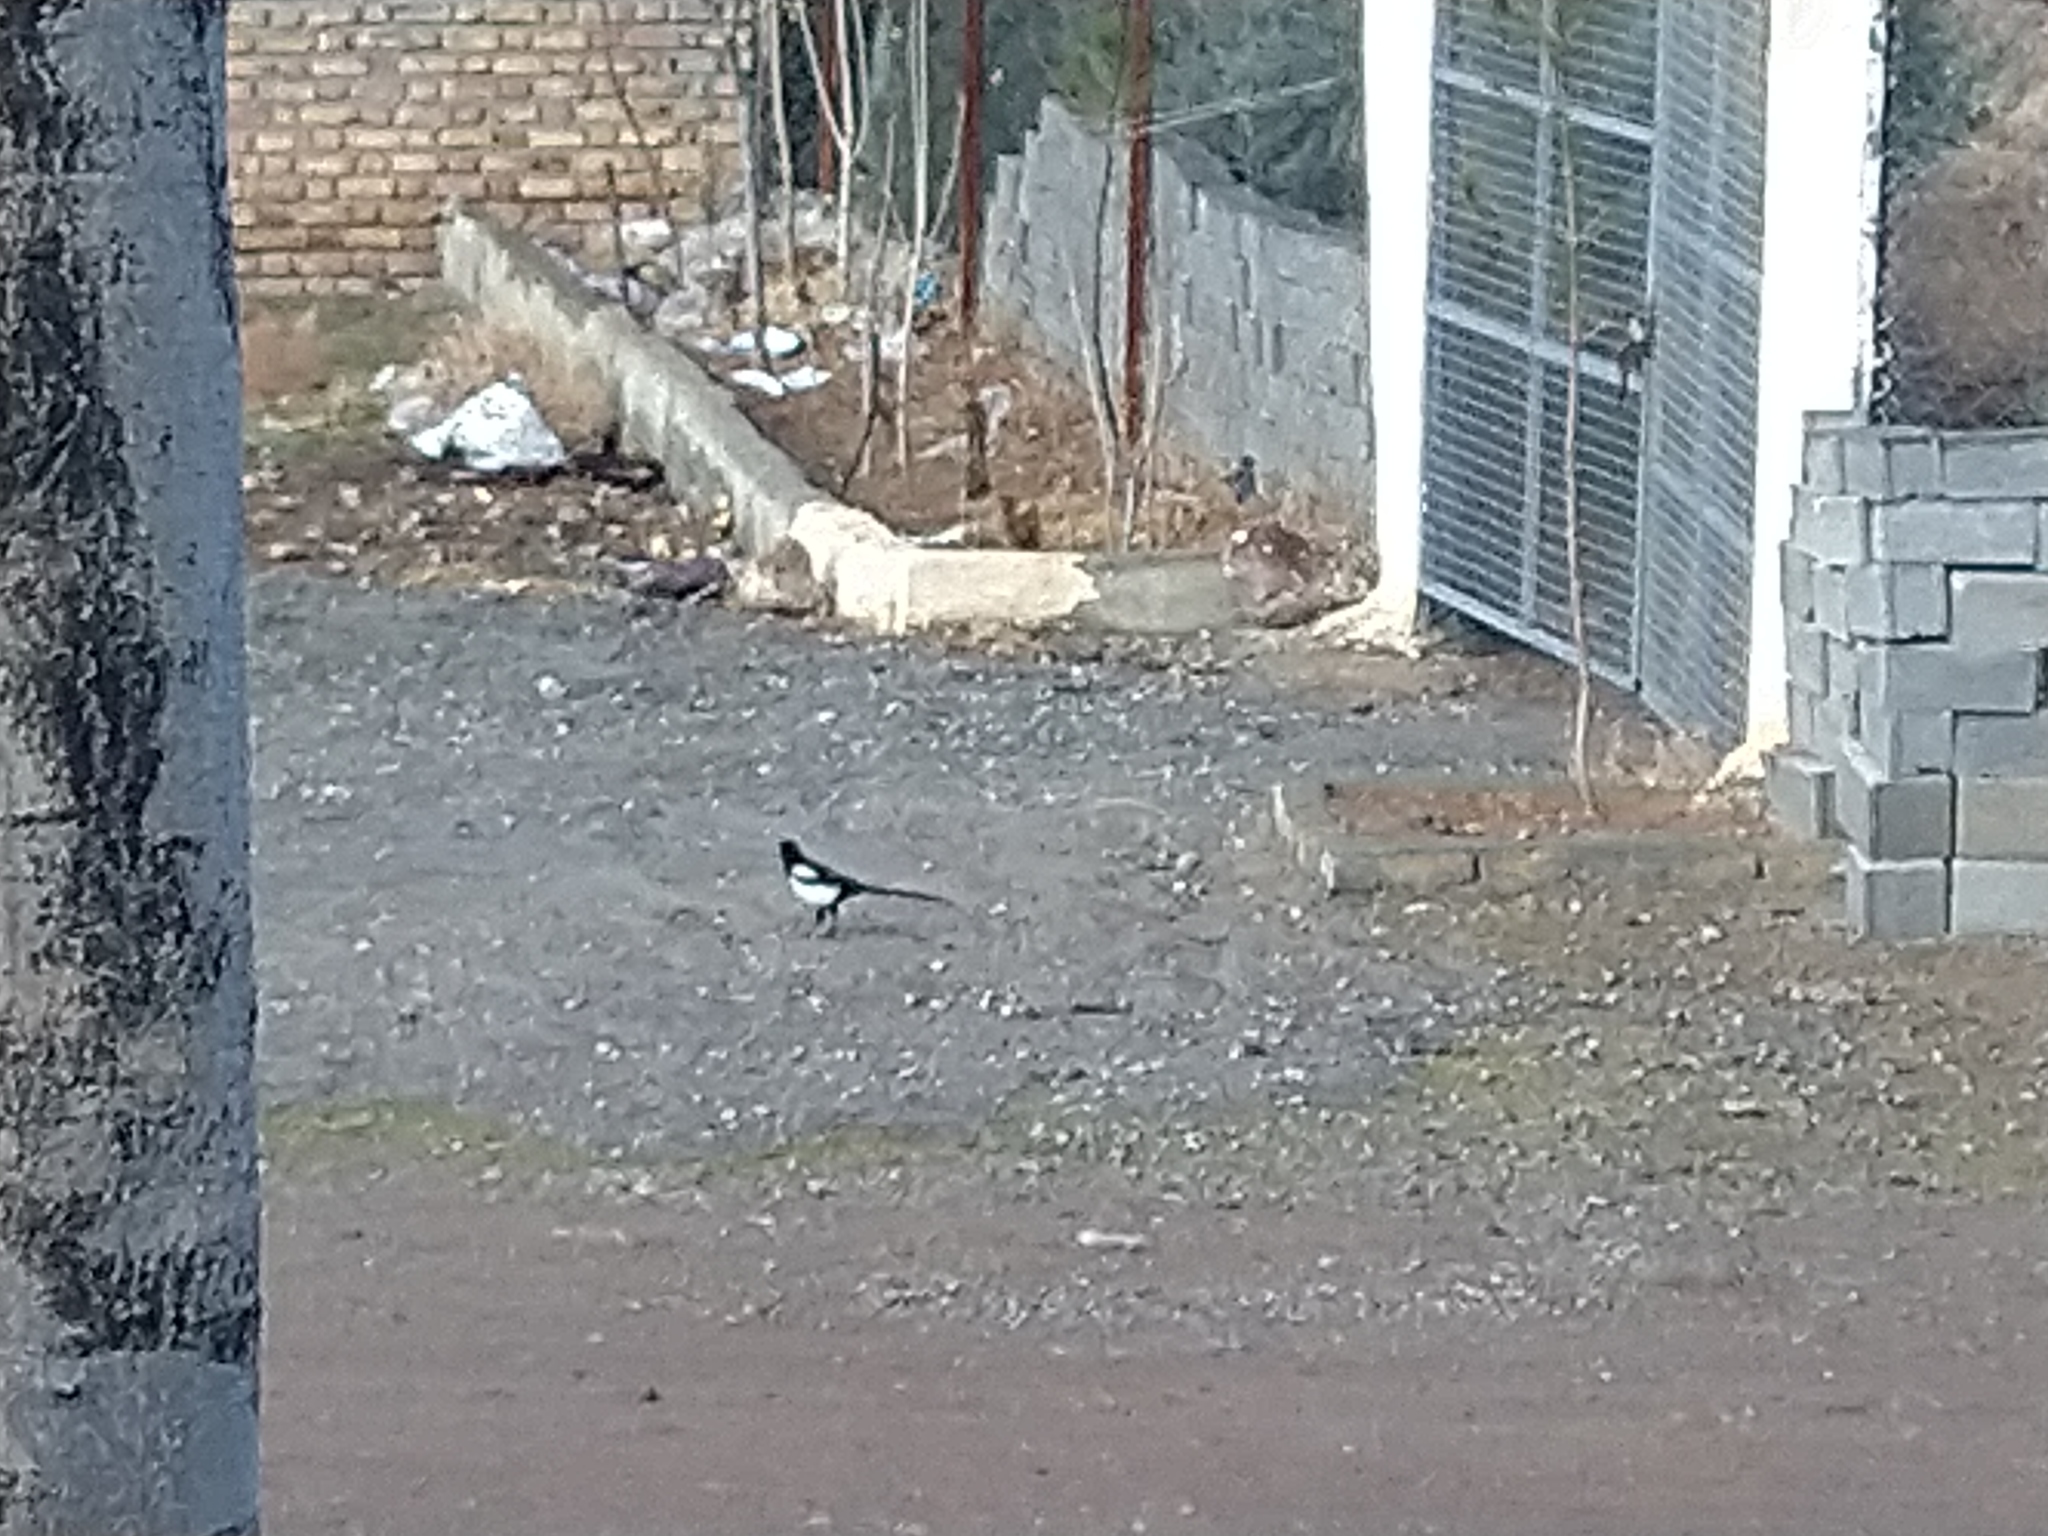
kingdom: Animalia
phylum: Chordata
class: Aves
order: Passeriformes
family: Corvidae
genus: Pica
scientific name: Pica pica
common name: Eurasian magpie
